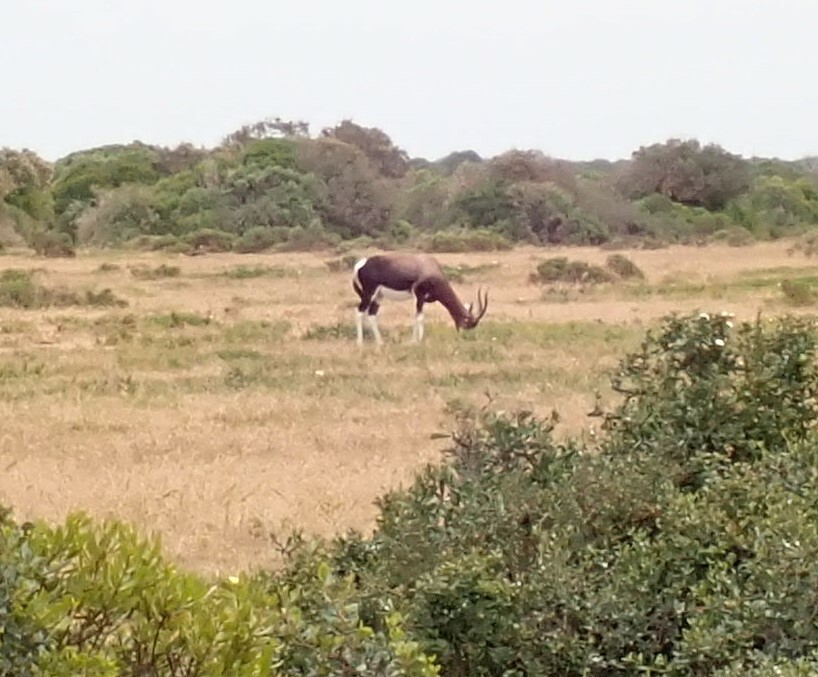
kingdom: Animalia
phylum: Chordata
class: Mammalia
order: Artiodactyla
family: Bovidae
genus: Damaliscus
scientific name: Damaliscus pygargus
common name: Bontebok
